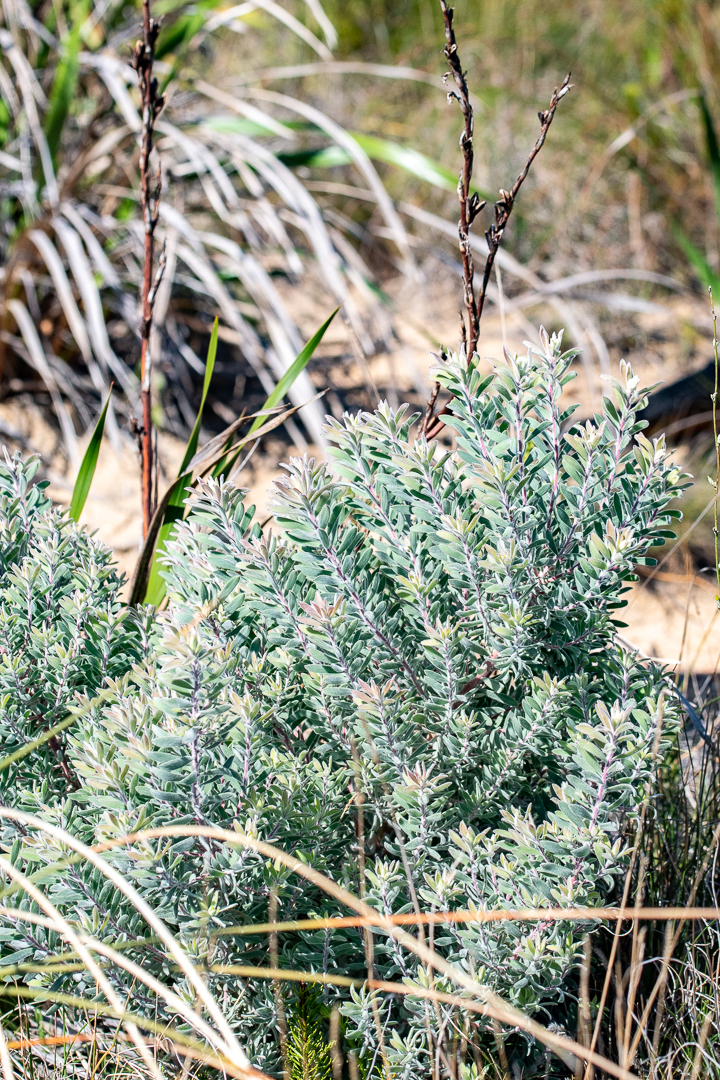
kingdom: Plantae
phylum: Tracheophyta
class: Magnoliopsida
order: Proteales
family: Proteaceae
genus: Leucadendron
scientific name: Leucadendron rubrum
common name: Spinning top
